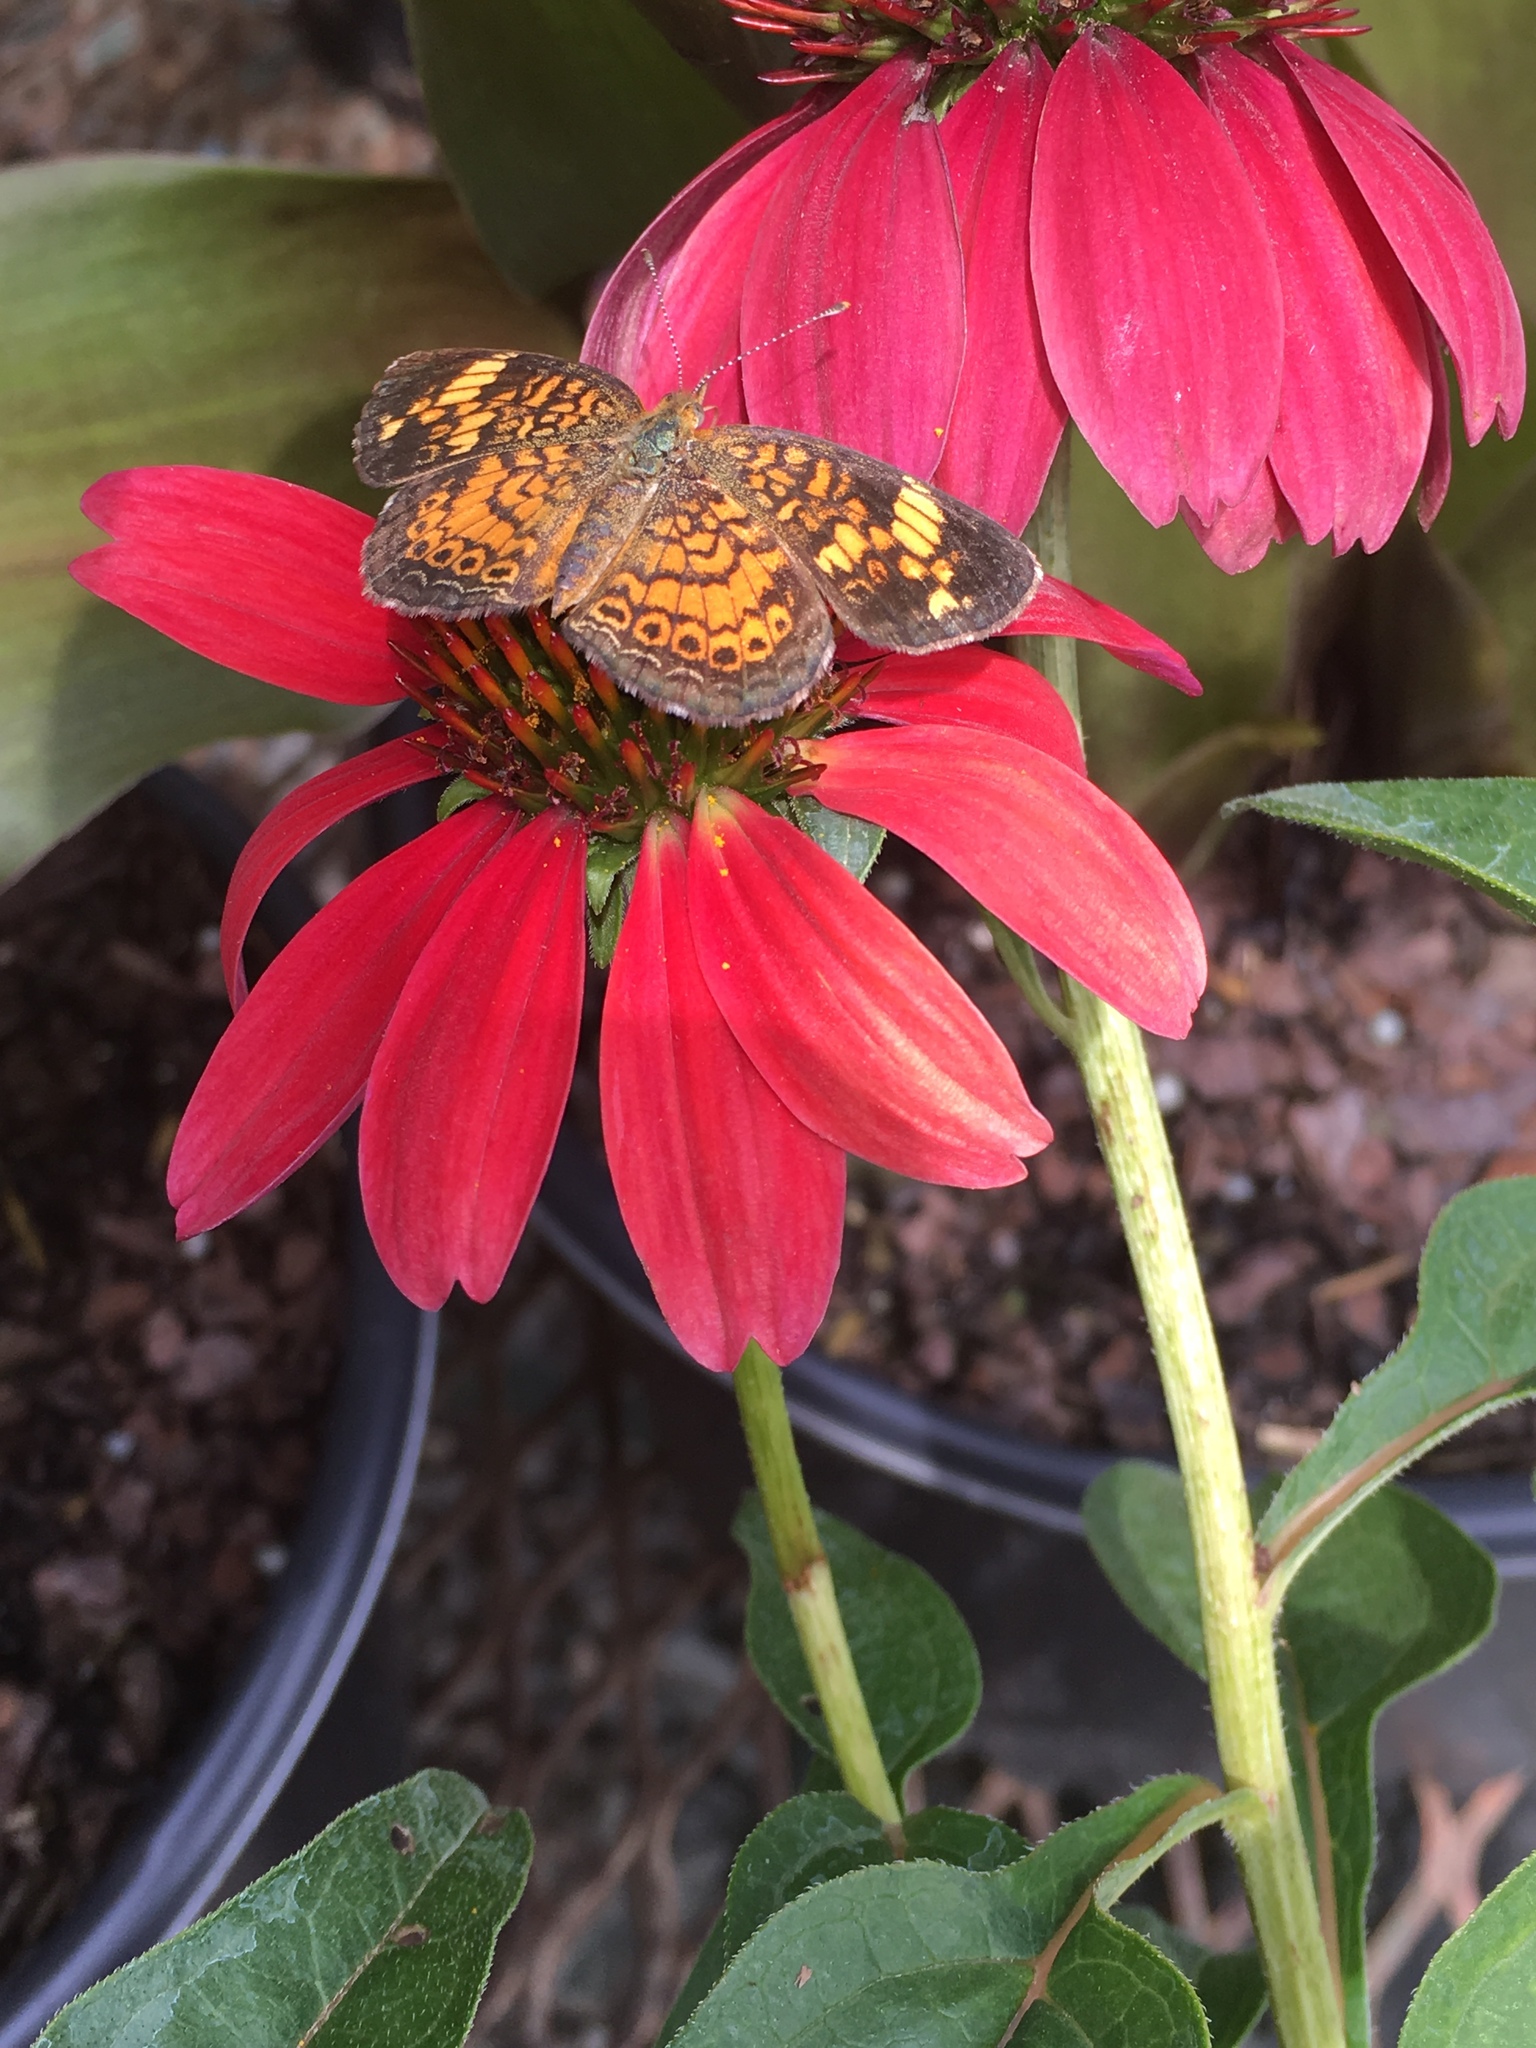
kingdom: Animalia
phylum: Arthropoda
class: Insecta
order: Lepidoptera
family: Nymphalidae
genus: Phyciodes
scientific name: Phyciodes tharos
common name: Pearl crescent
